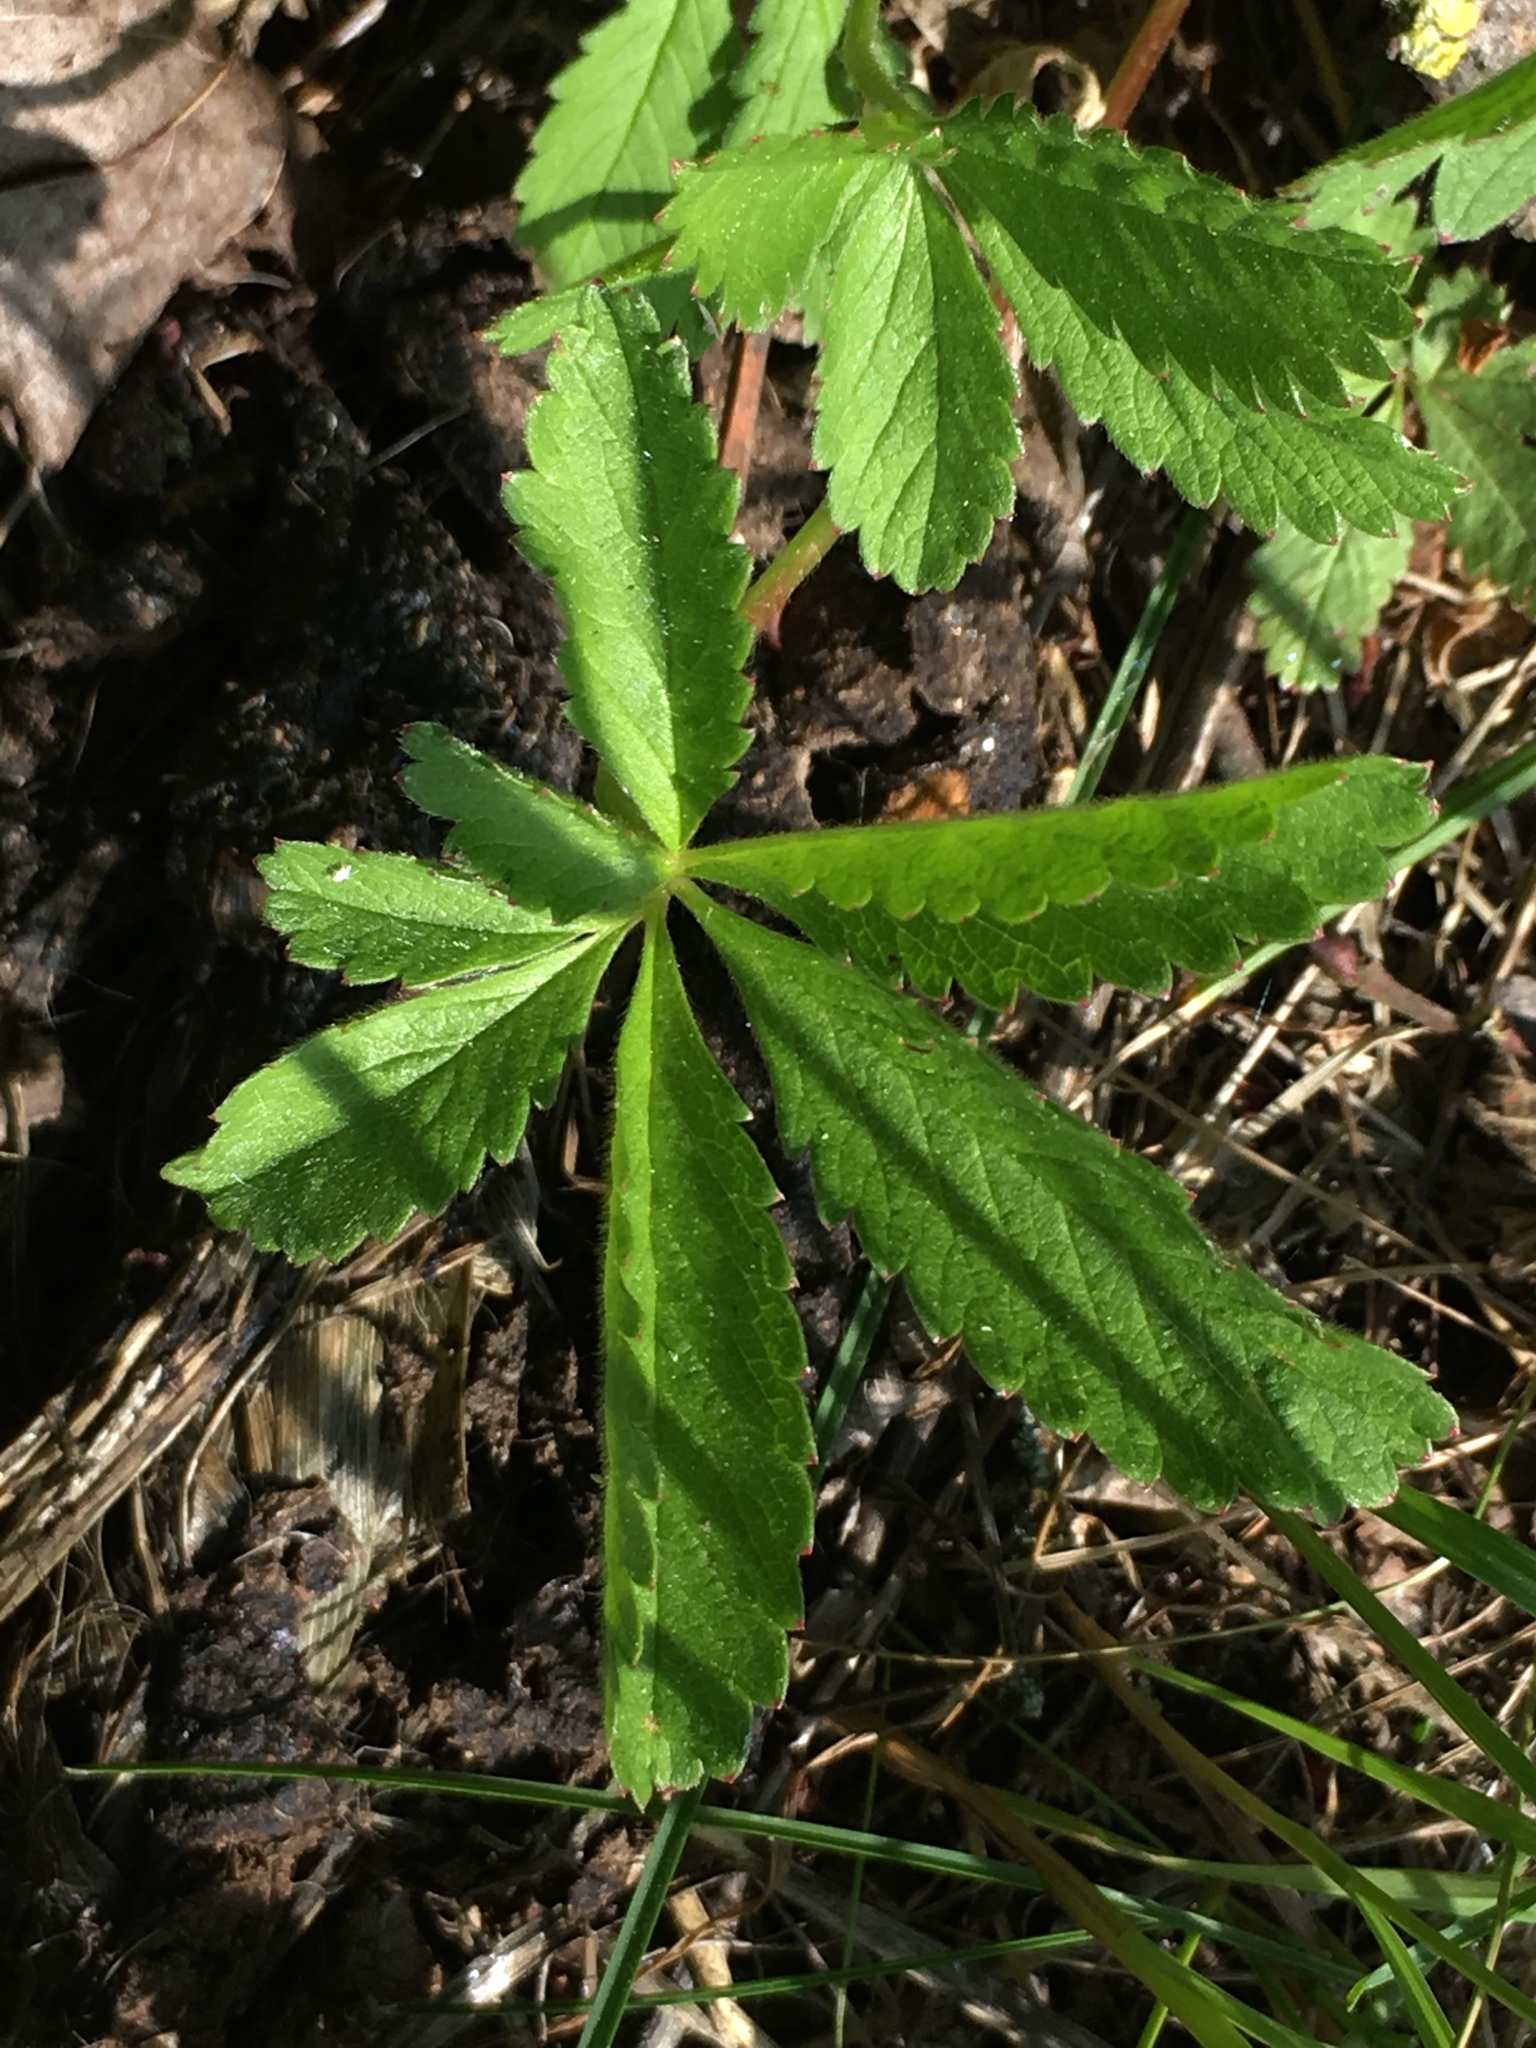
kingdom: Plantae
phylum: Tracheophyta
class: Magnoliopsida
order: Rosales
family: Rosaceae
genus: Potentilla
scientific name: Potentilla reptans
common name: Creeping cinquefoil
